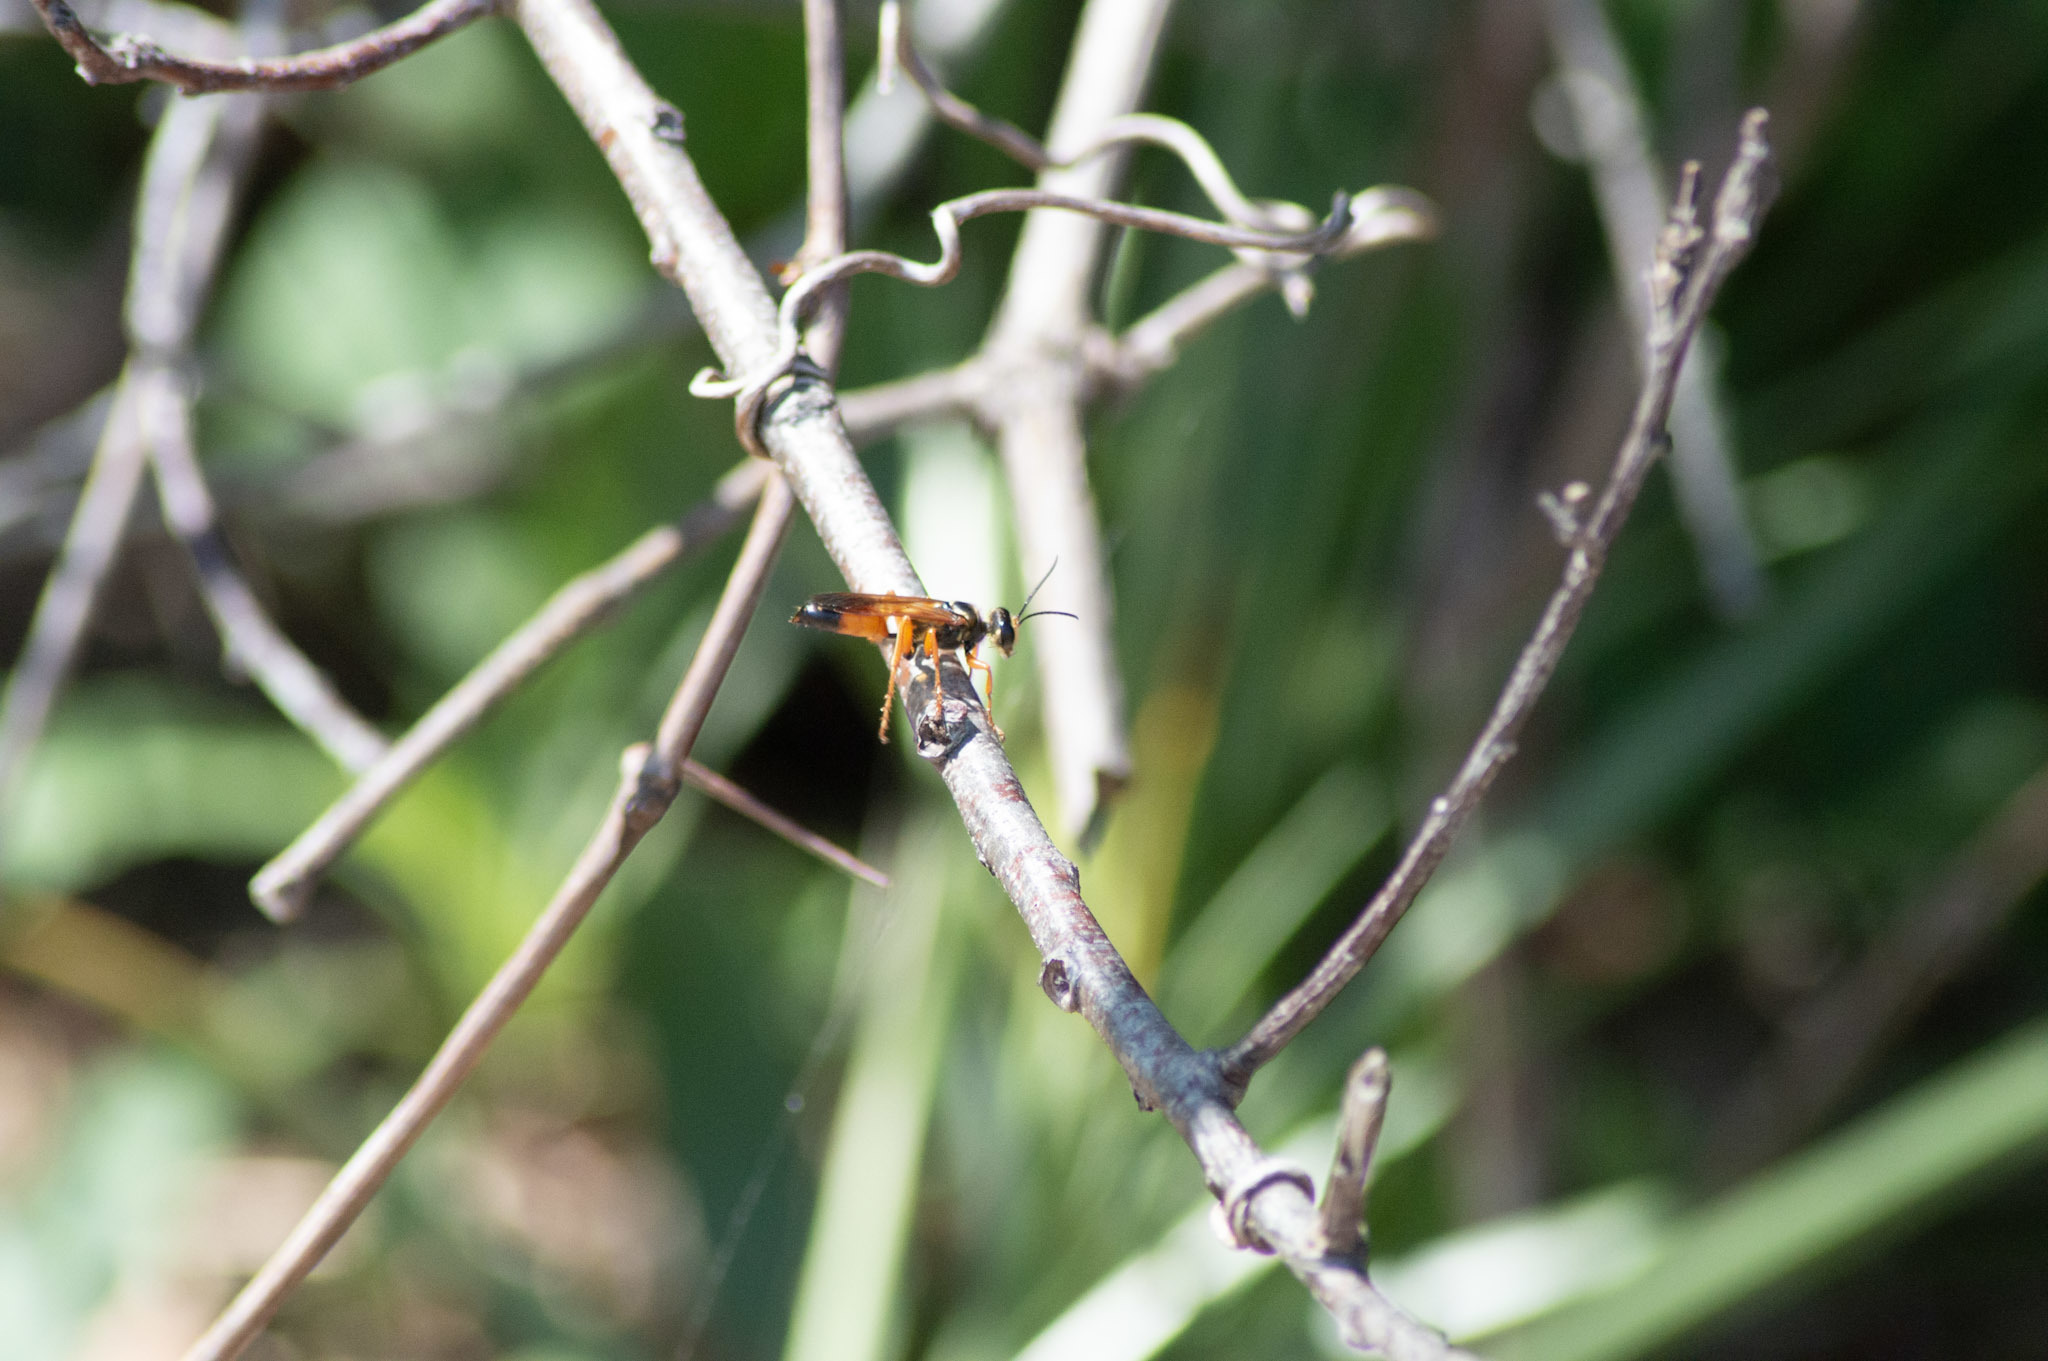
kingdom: Animalia
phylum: Arthropoda
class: Insecta
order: Hymenoptera
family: Sphecidae
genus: Sphex
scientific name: Sphex ichneumoneus
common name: Great golden digger wasp
